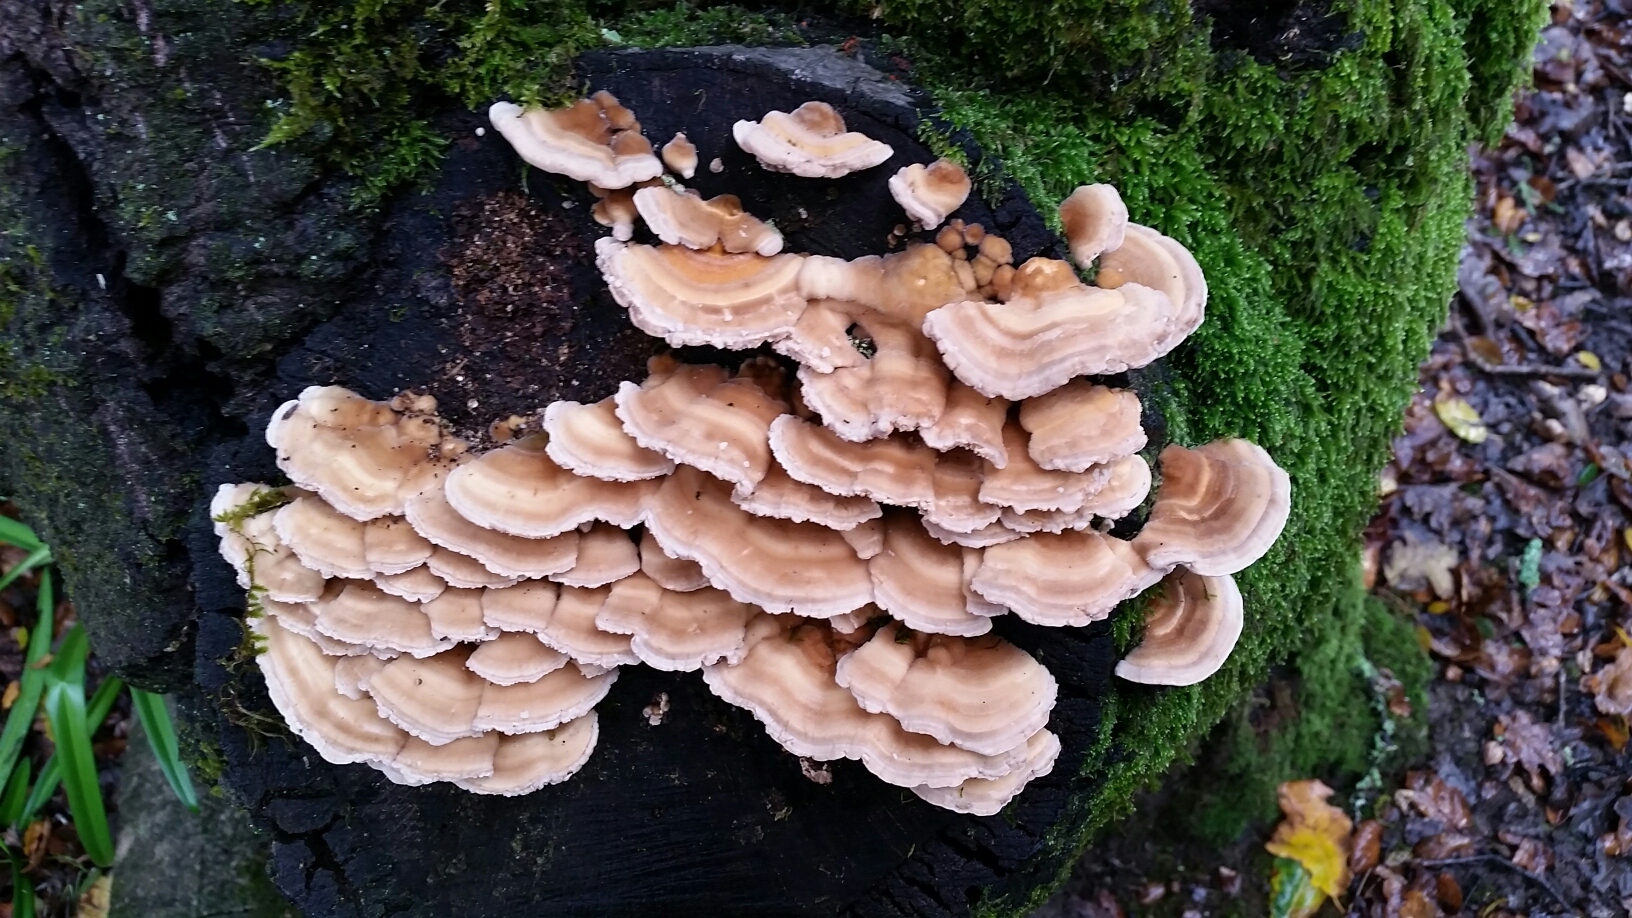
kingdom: Fungi
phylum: Basidiomycota
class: Agaricomycetes
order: Polyporales
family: Polyporaceae
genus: Lenzites
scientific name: Lenzites betulinus
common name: Birch mazegill
